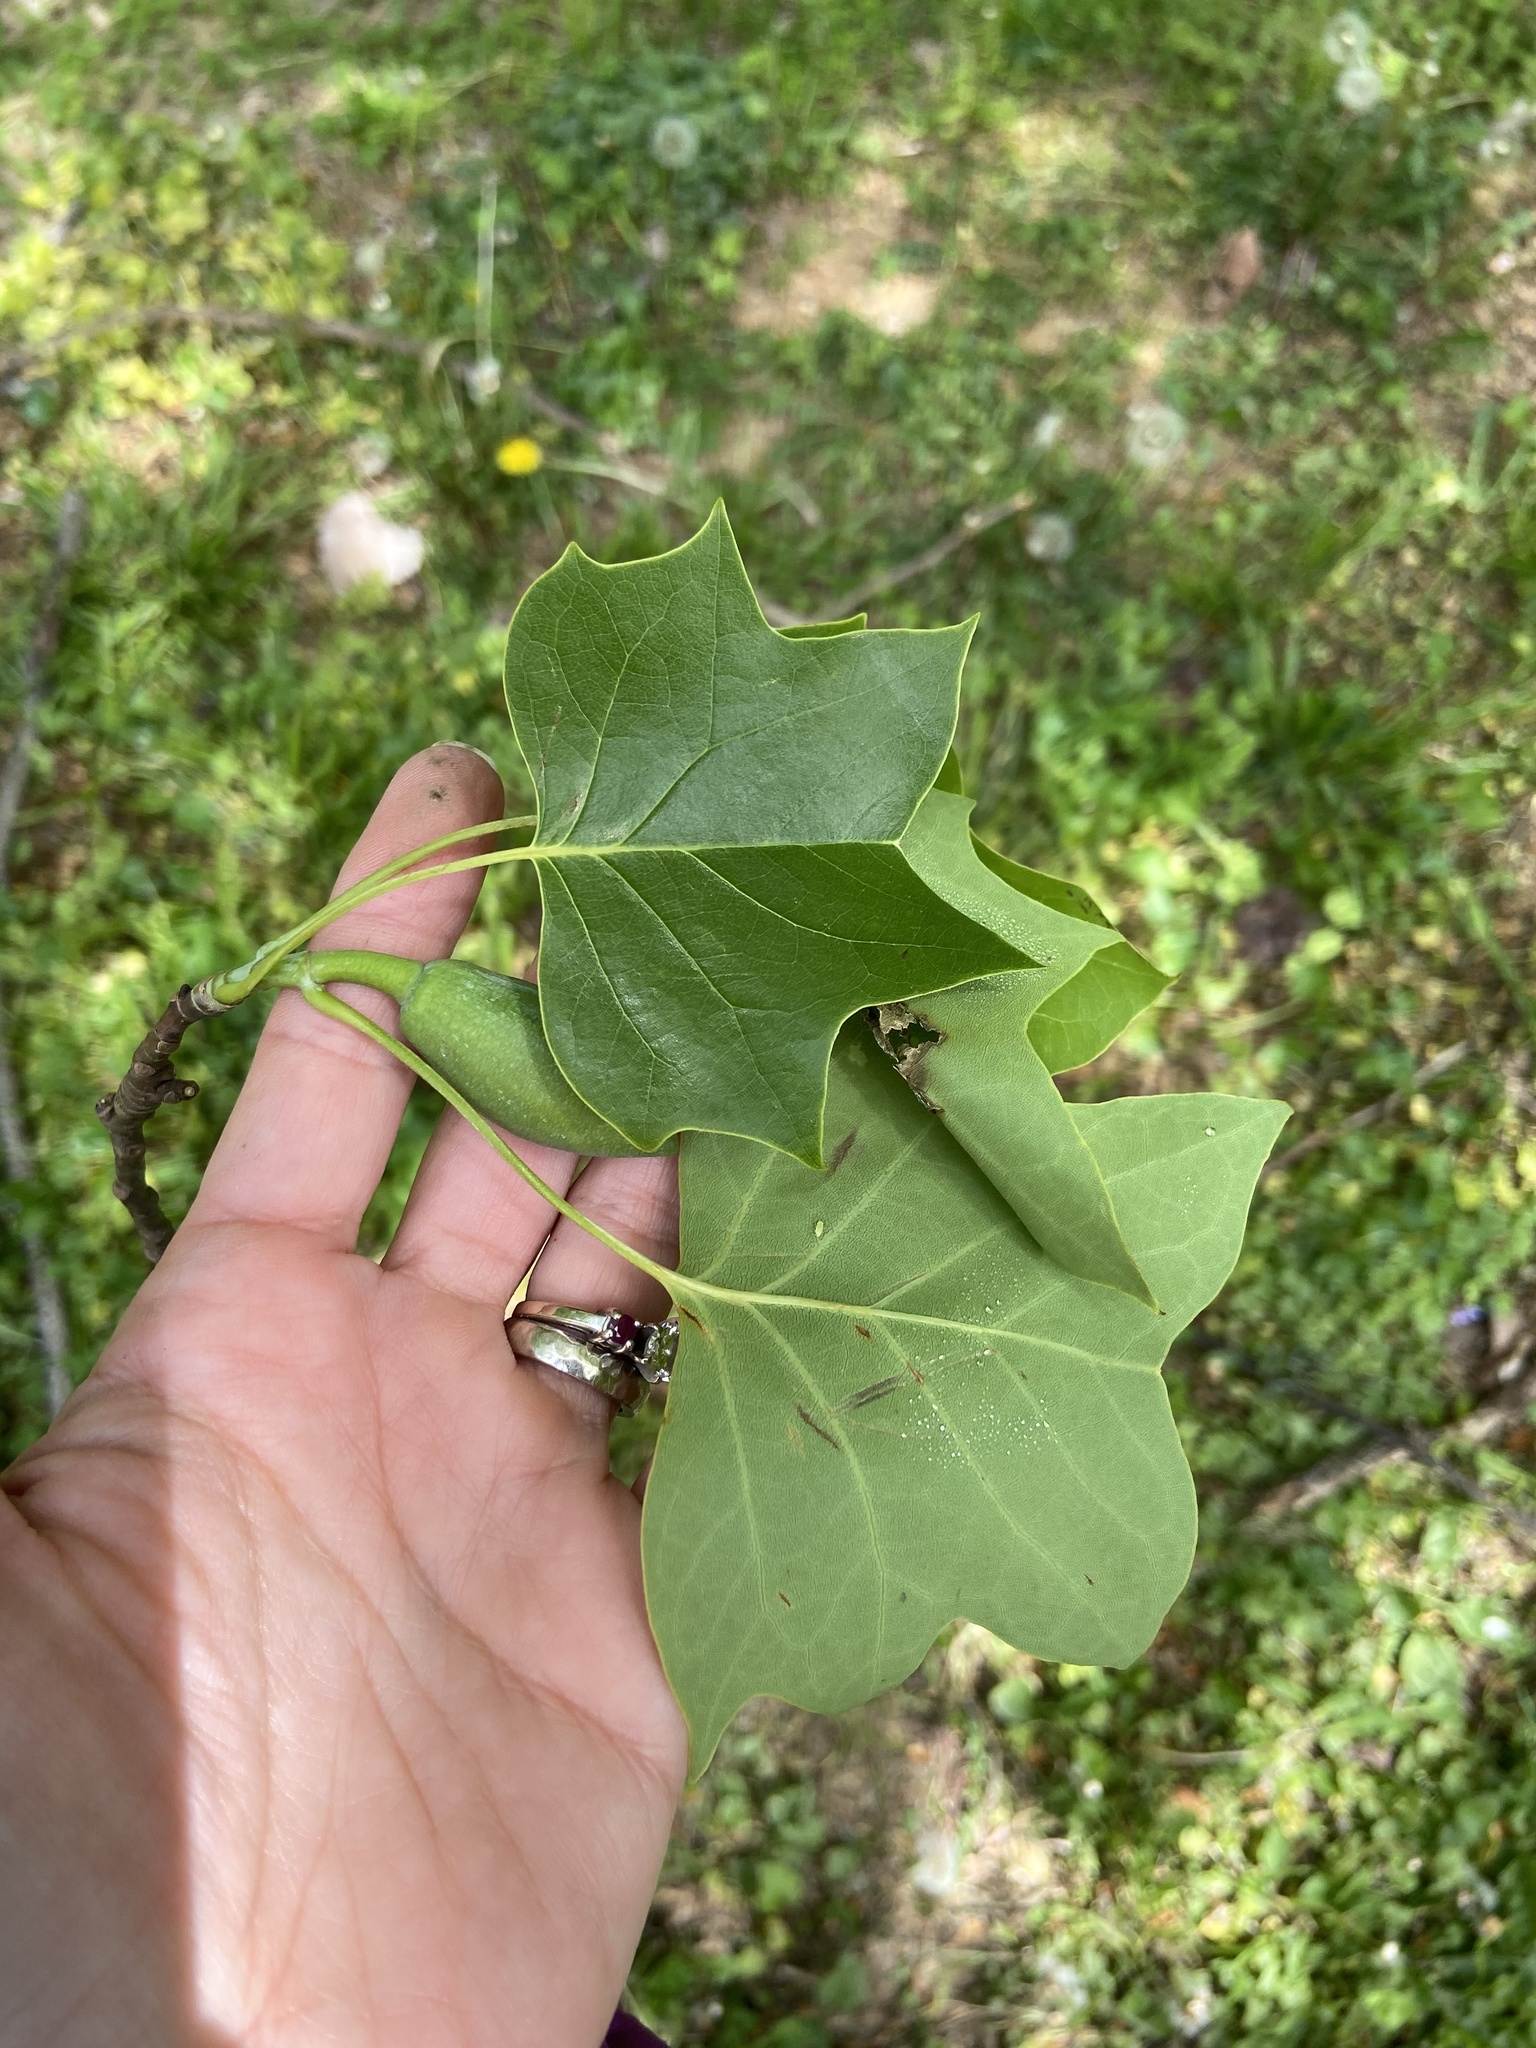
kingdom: Plantae
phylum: Tracheophyta
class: Magnoliopsida
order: Magnoliales
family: Magnoliaceae
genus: Liriodendron
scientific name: Liriodendron tulipifera
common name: Tulip tree
